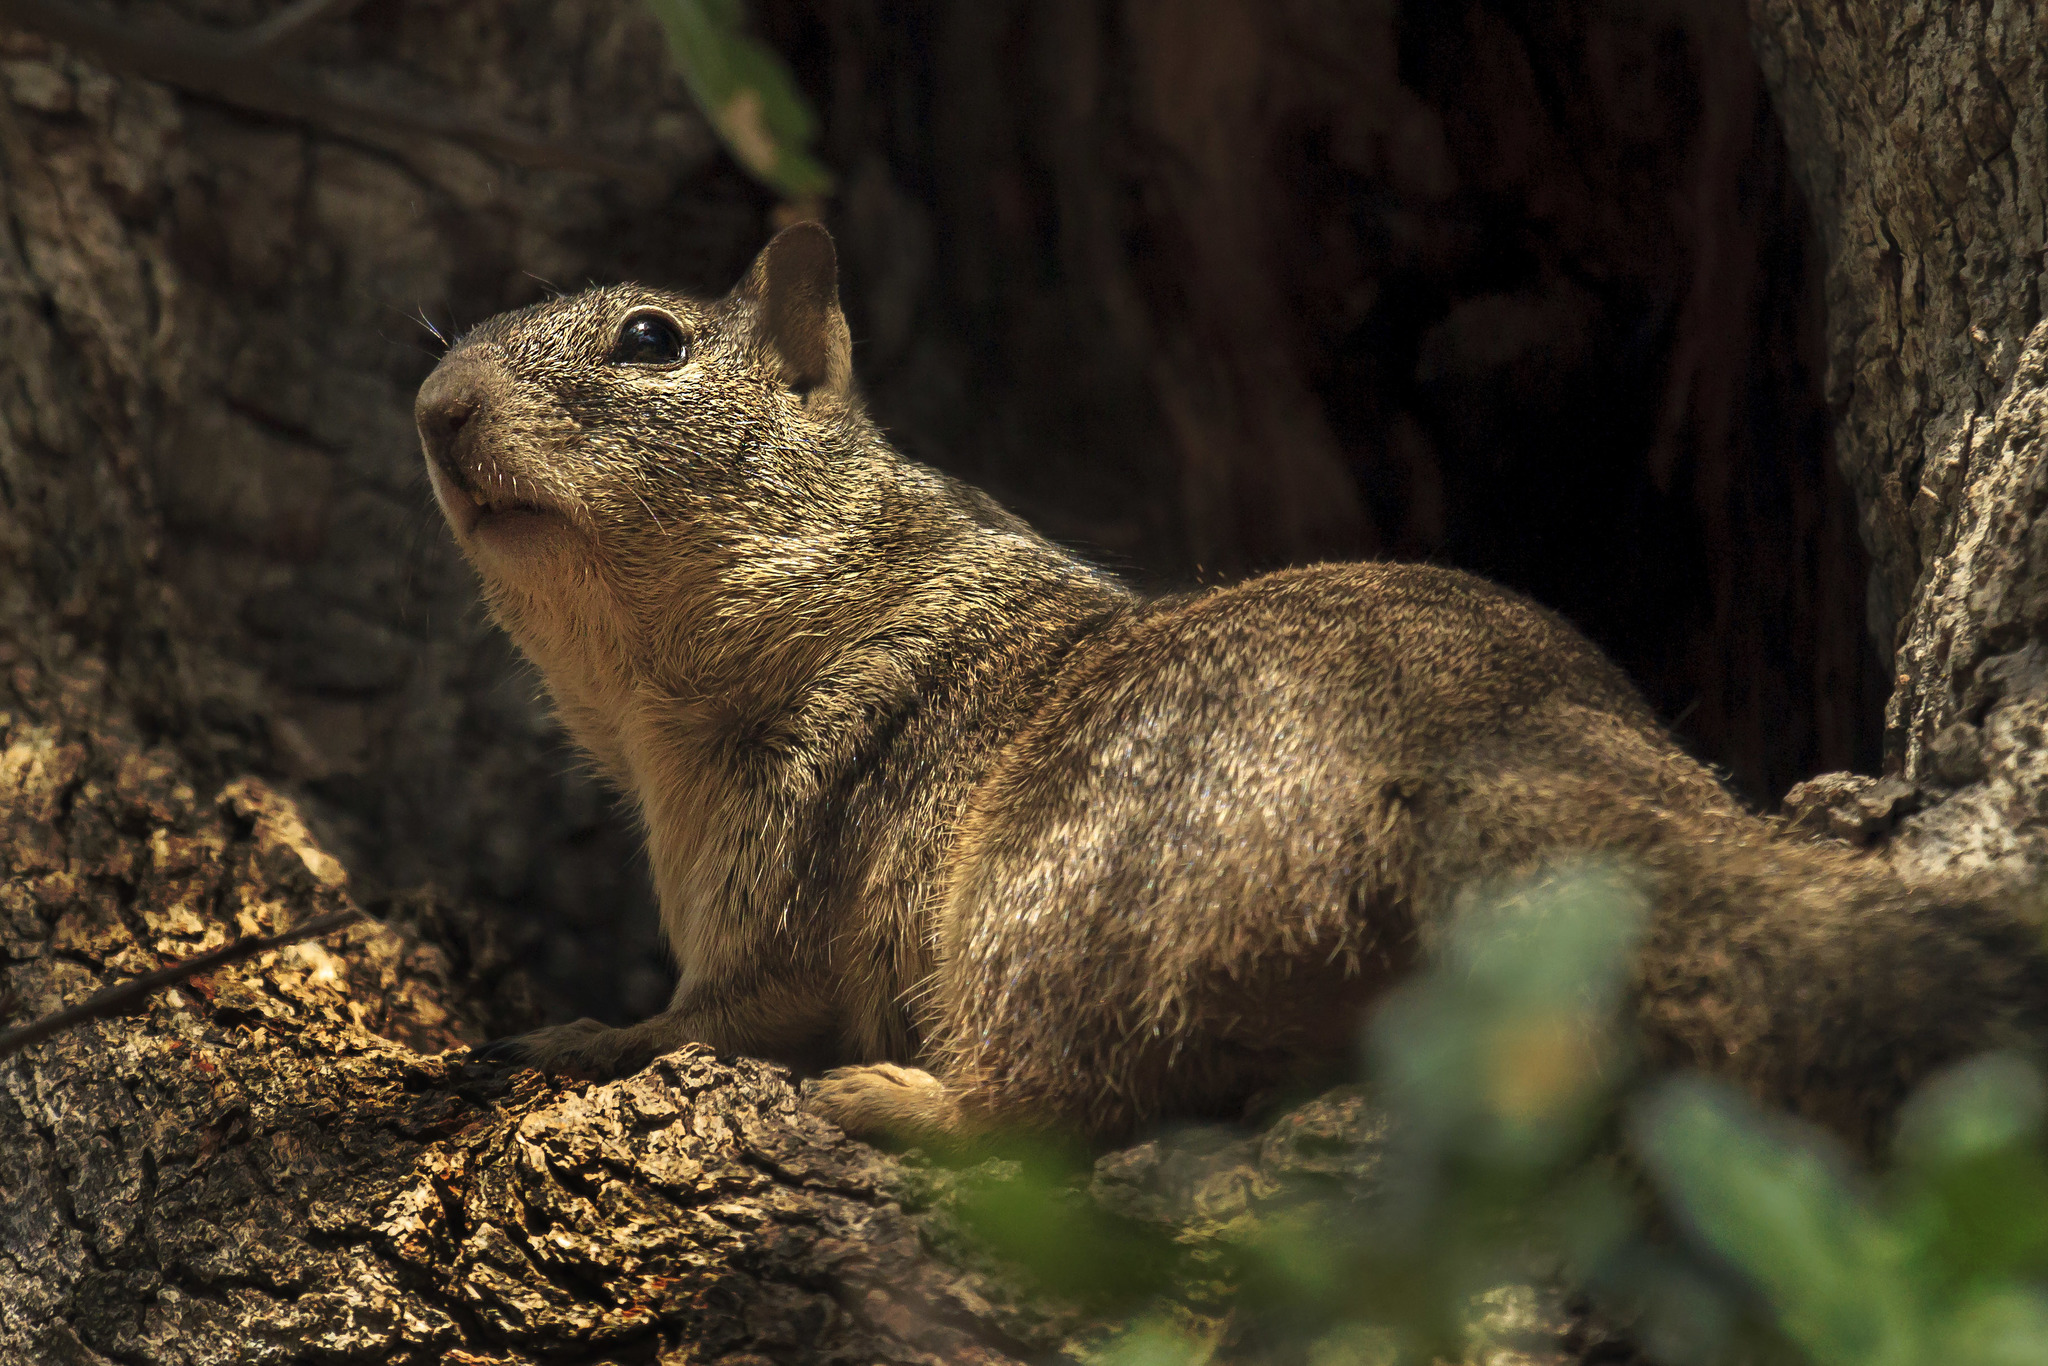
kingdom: Animalia
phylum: Chordata
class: Mammalia
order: Rodentia
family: Sciuridae
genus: Otospermophilus
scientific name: Otospermophilus beecheyi
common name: California ground squirrel
